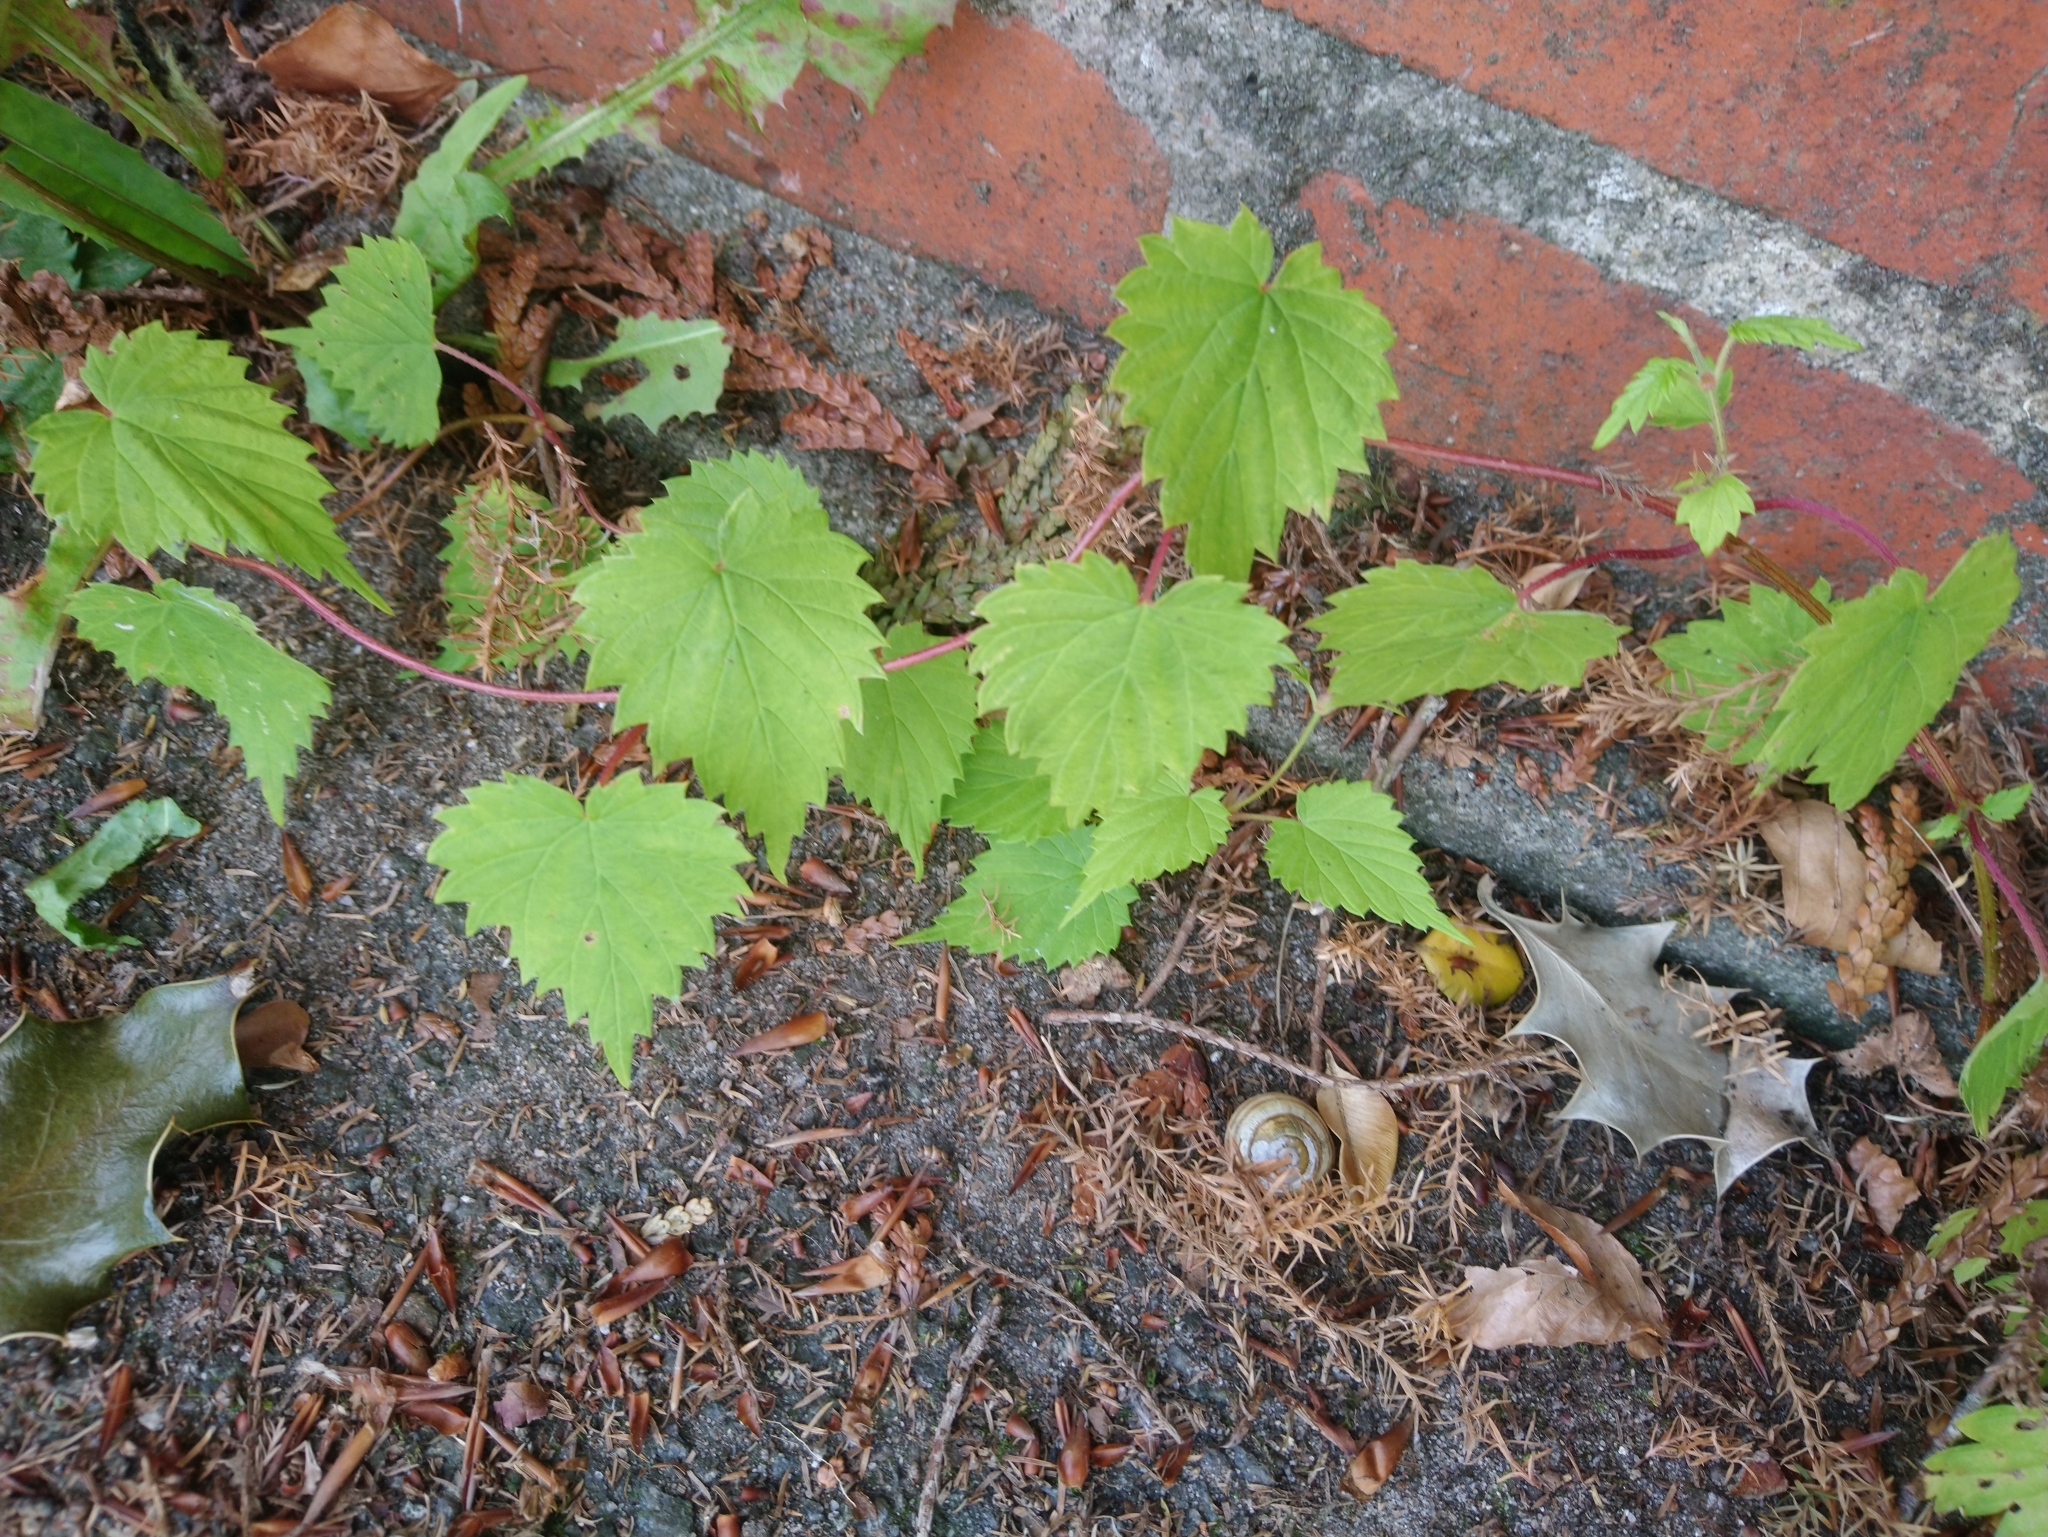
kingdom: Plantae
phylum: Tracheophyta
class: Magnoliopsida
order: Rosales
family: Cannabaceae
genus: Humulus
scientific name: Humulus lupulus
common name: Hop
